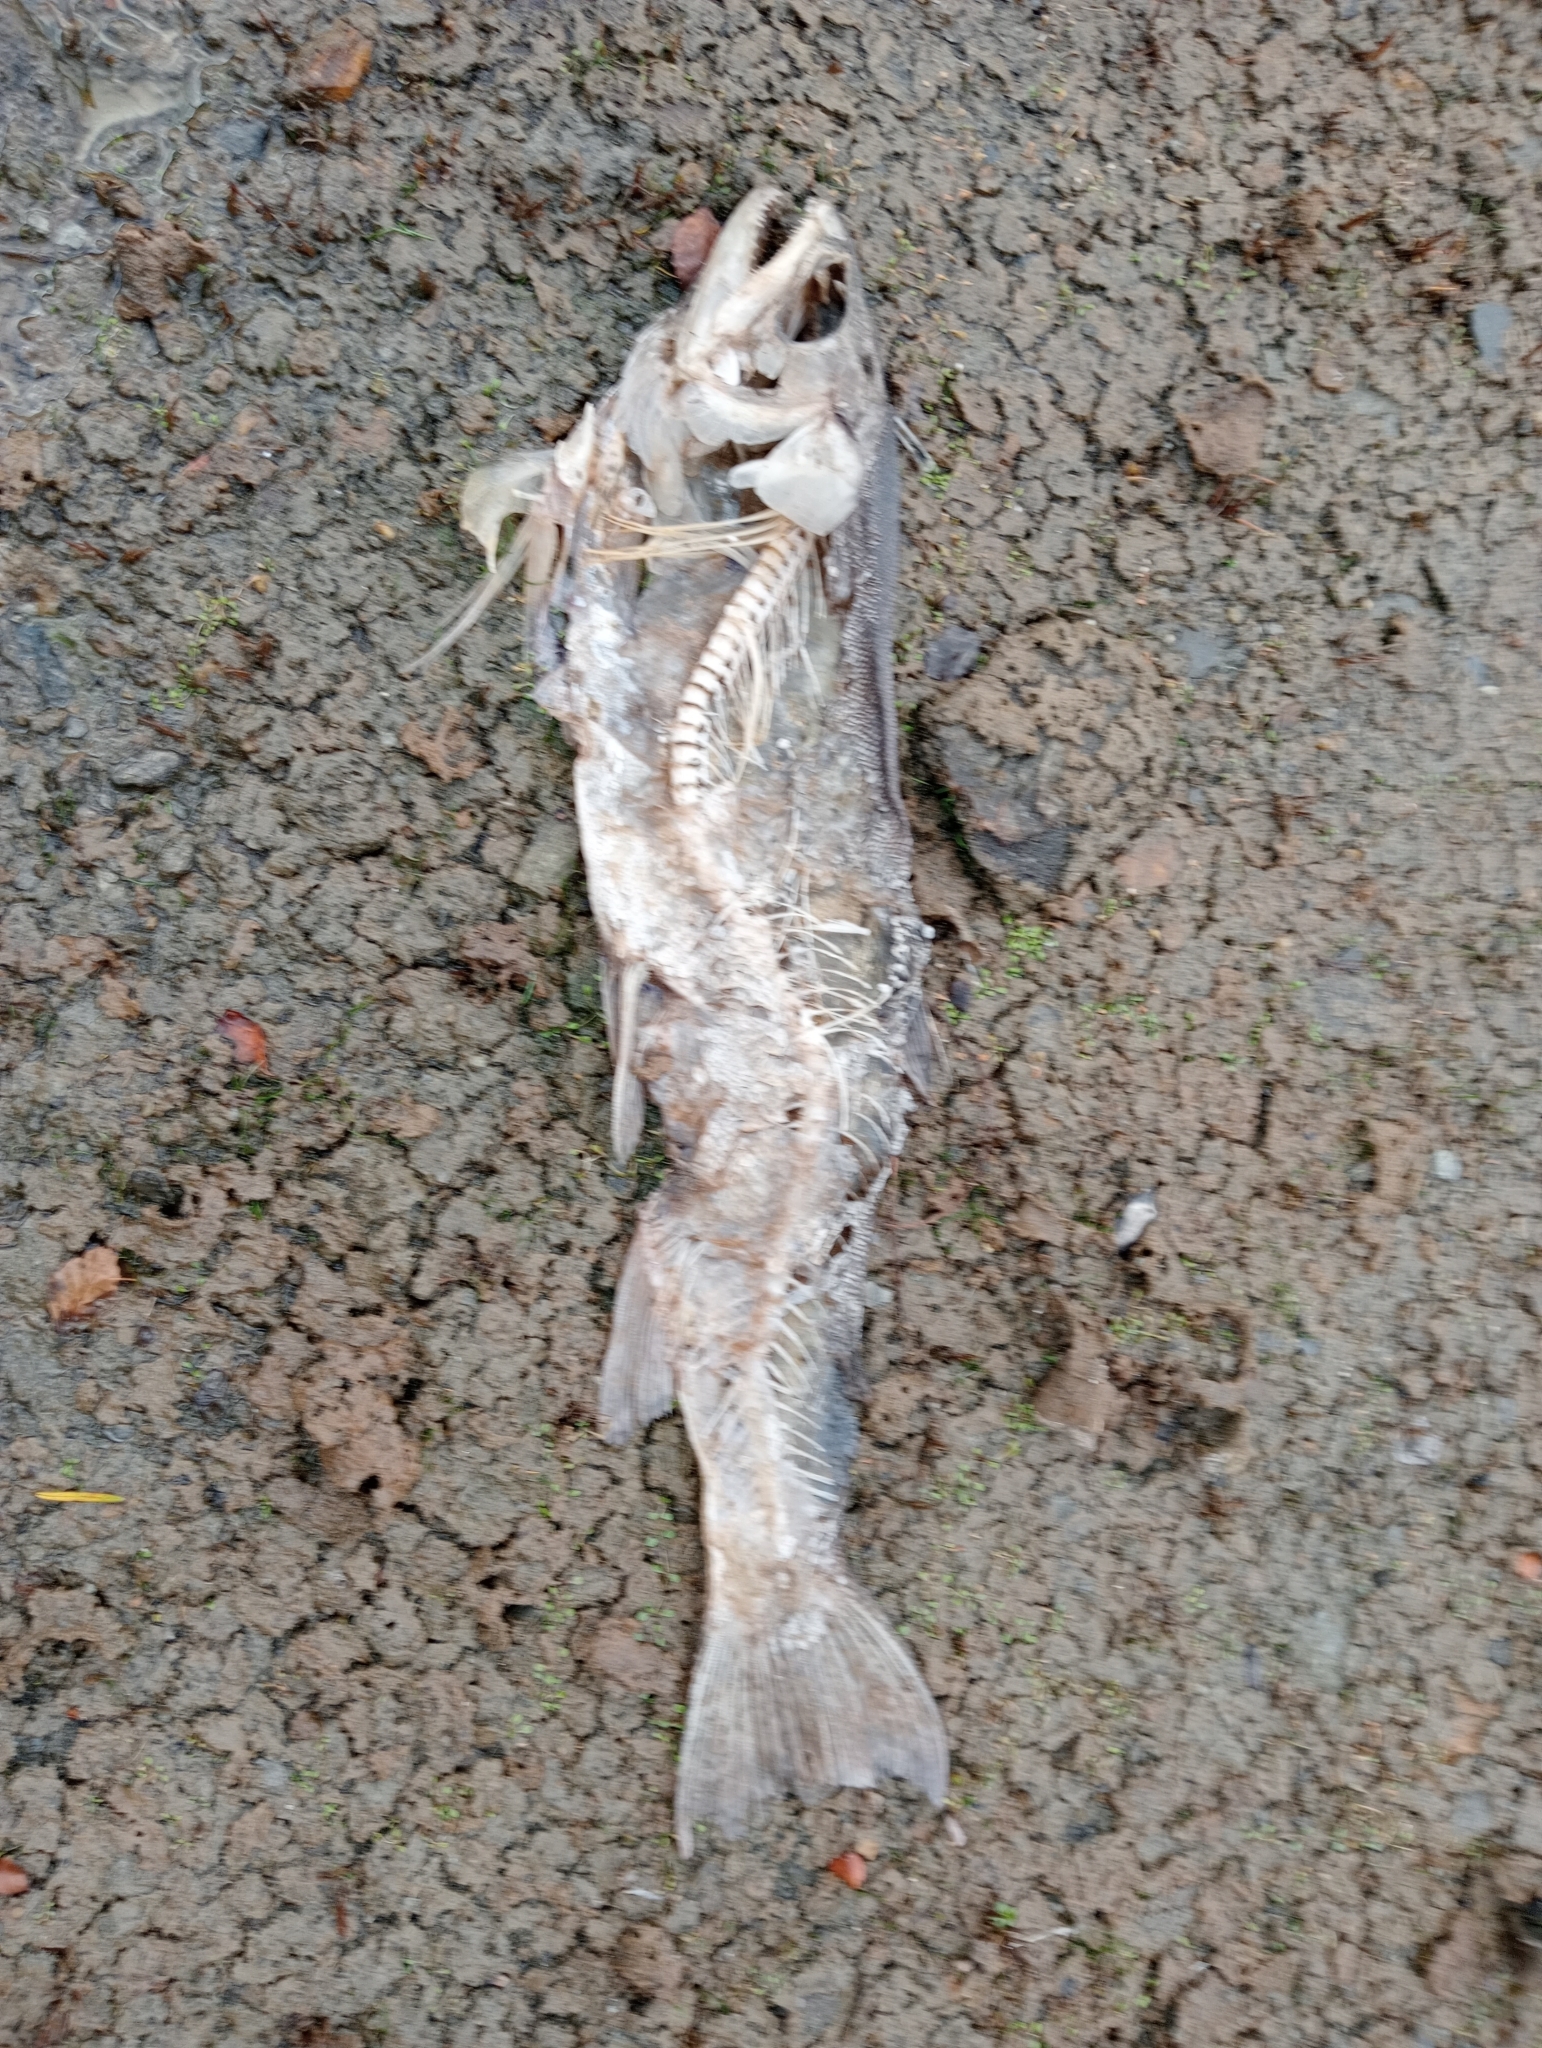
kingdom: Animalia
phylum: Chordata
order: Salmoniformes
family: Salmonidae
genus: Salmo
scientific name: Salmo trutta
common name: Brown trout
